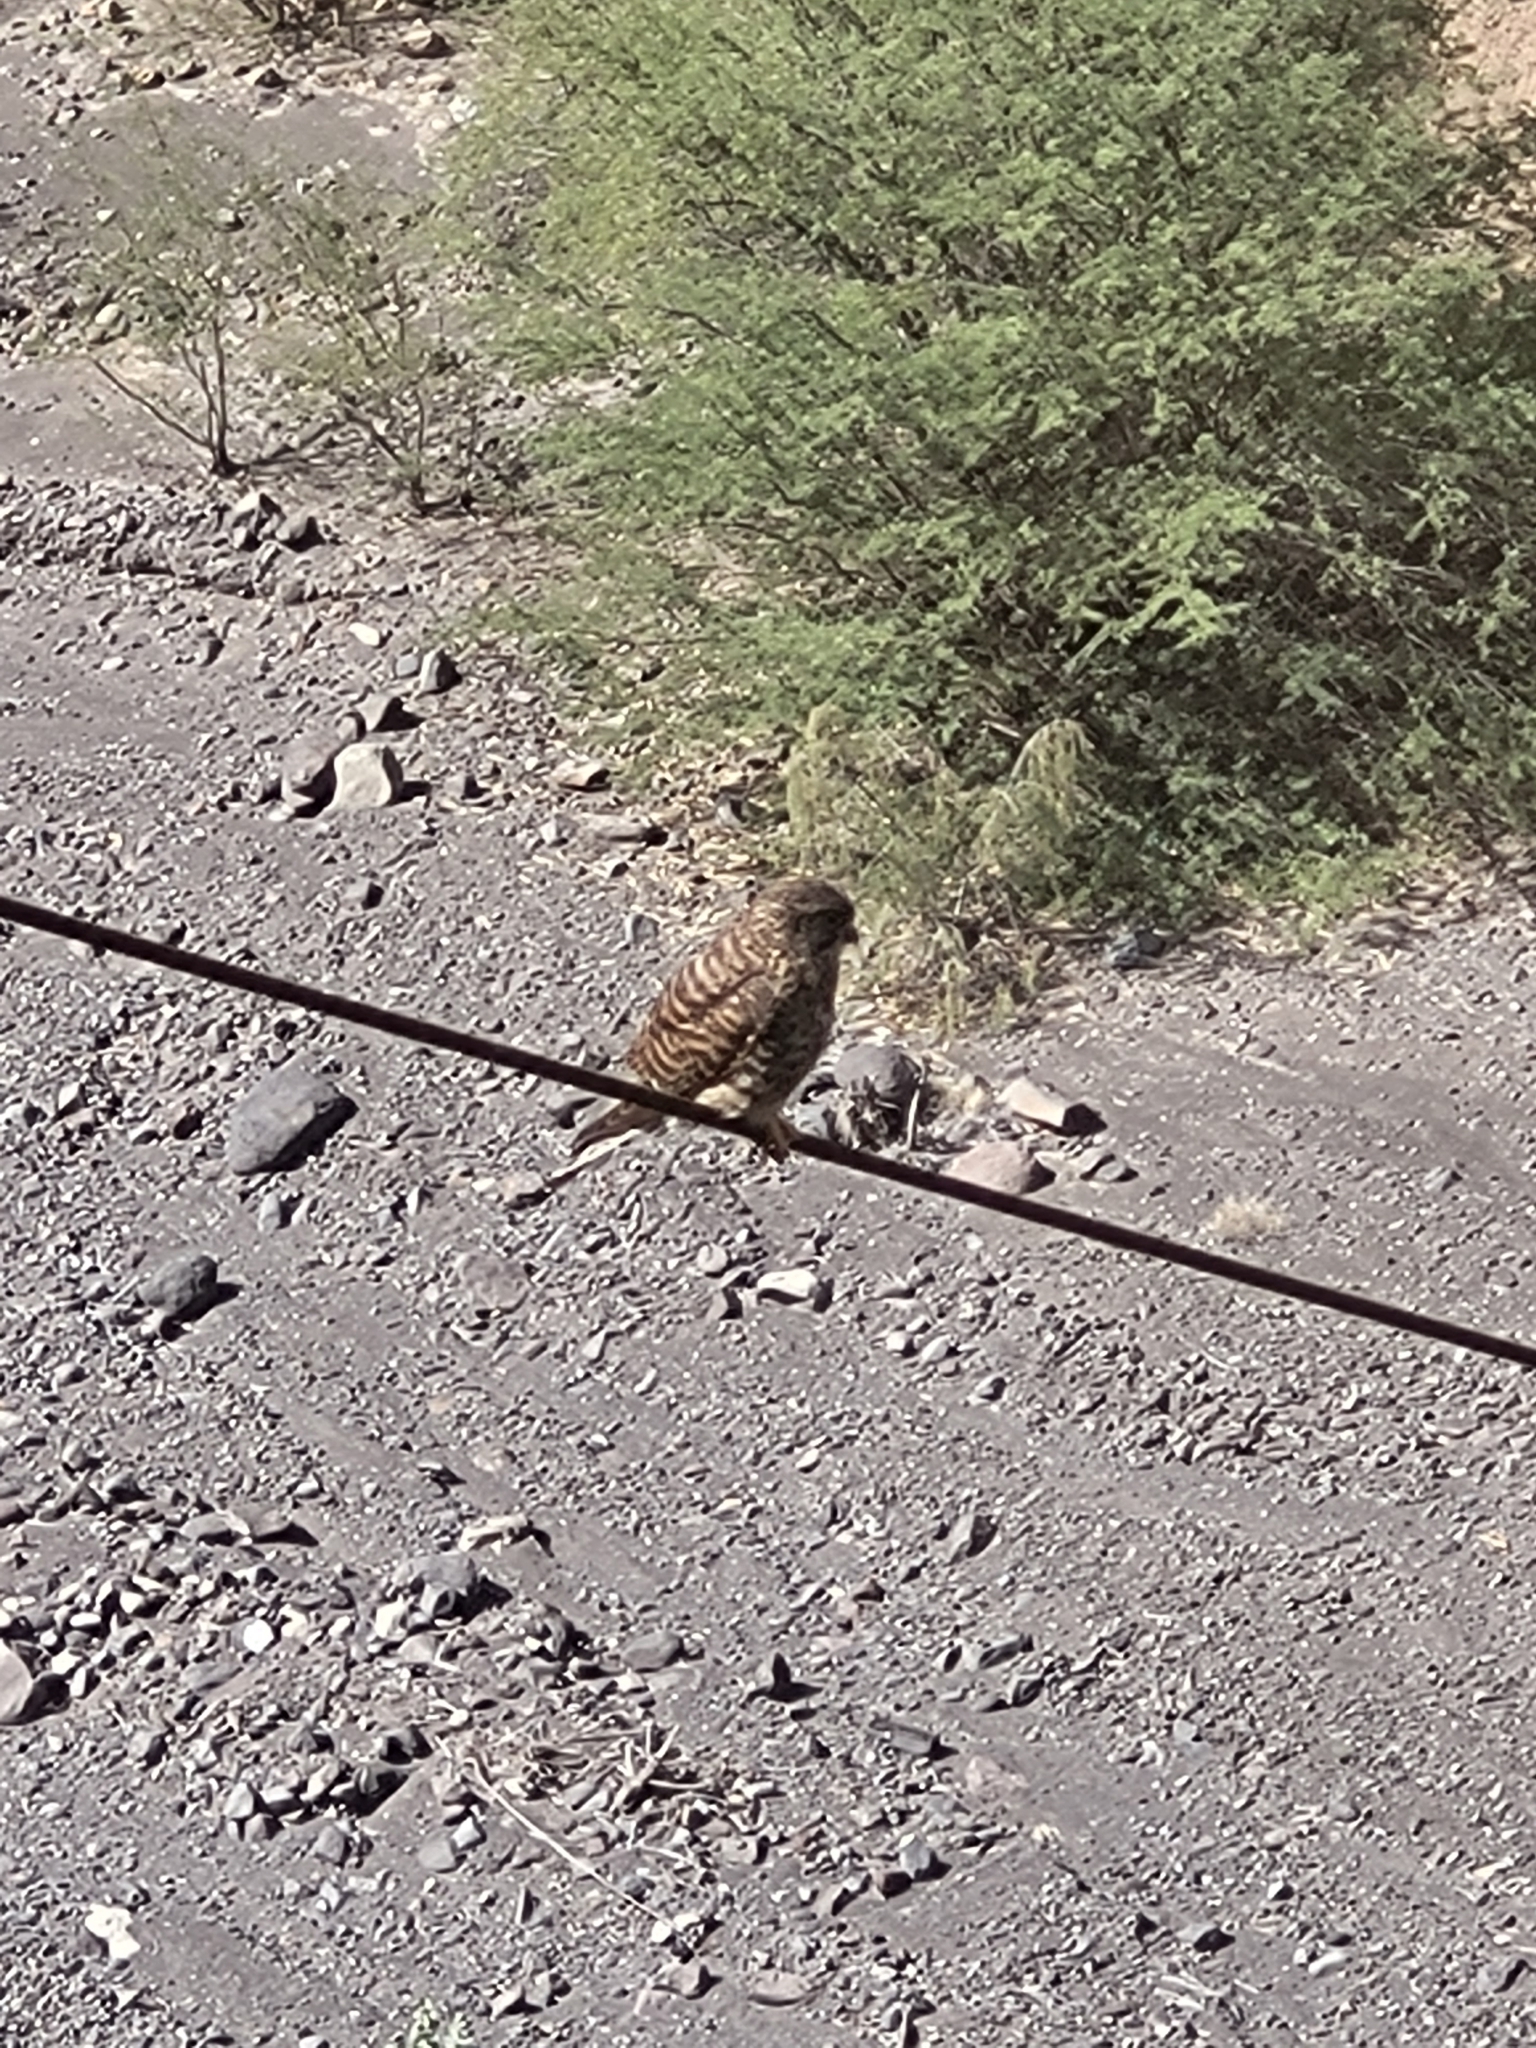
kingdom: Animalia
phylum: Chordata
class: Aves
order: Falconiformes
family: Falconidae
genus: Falco
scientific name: Falco tinnunculus
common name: Common kestrel
